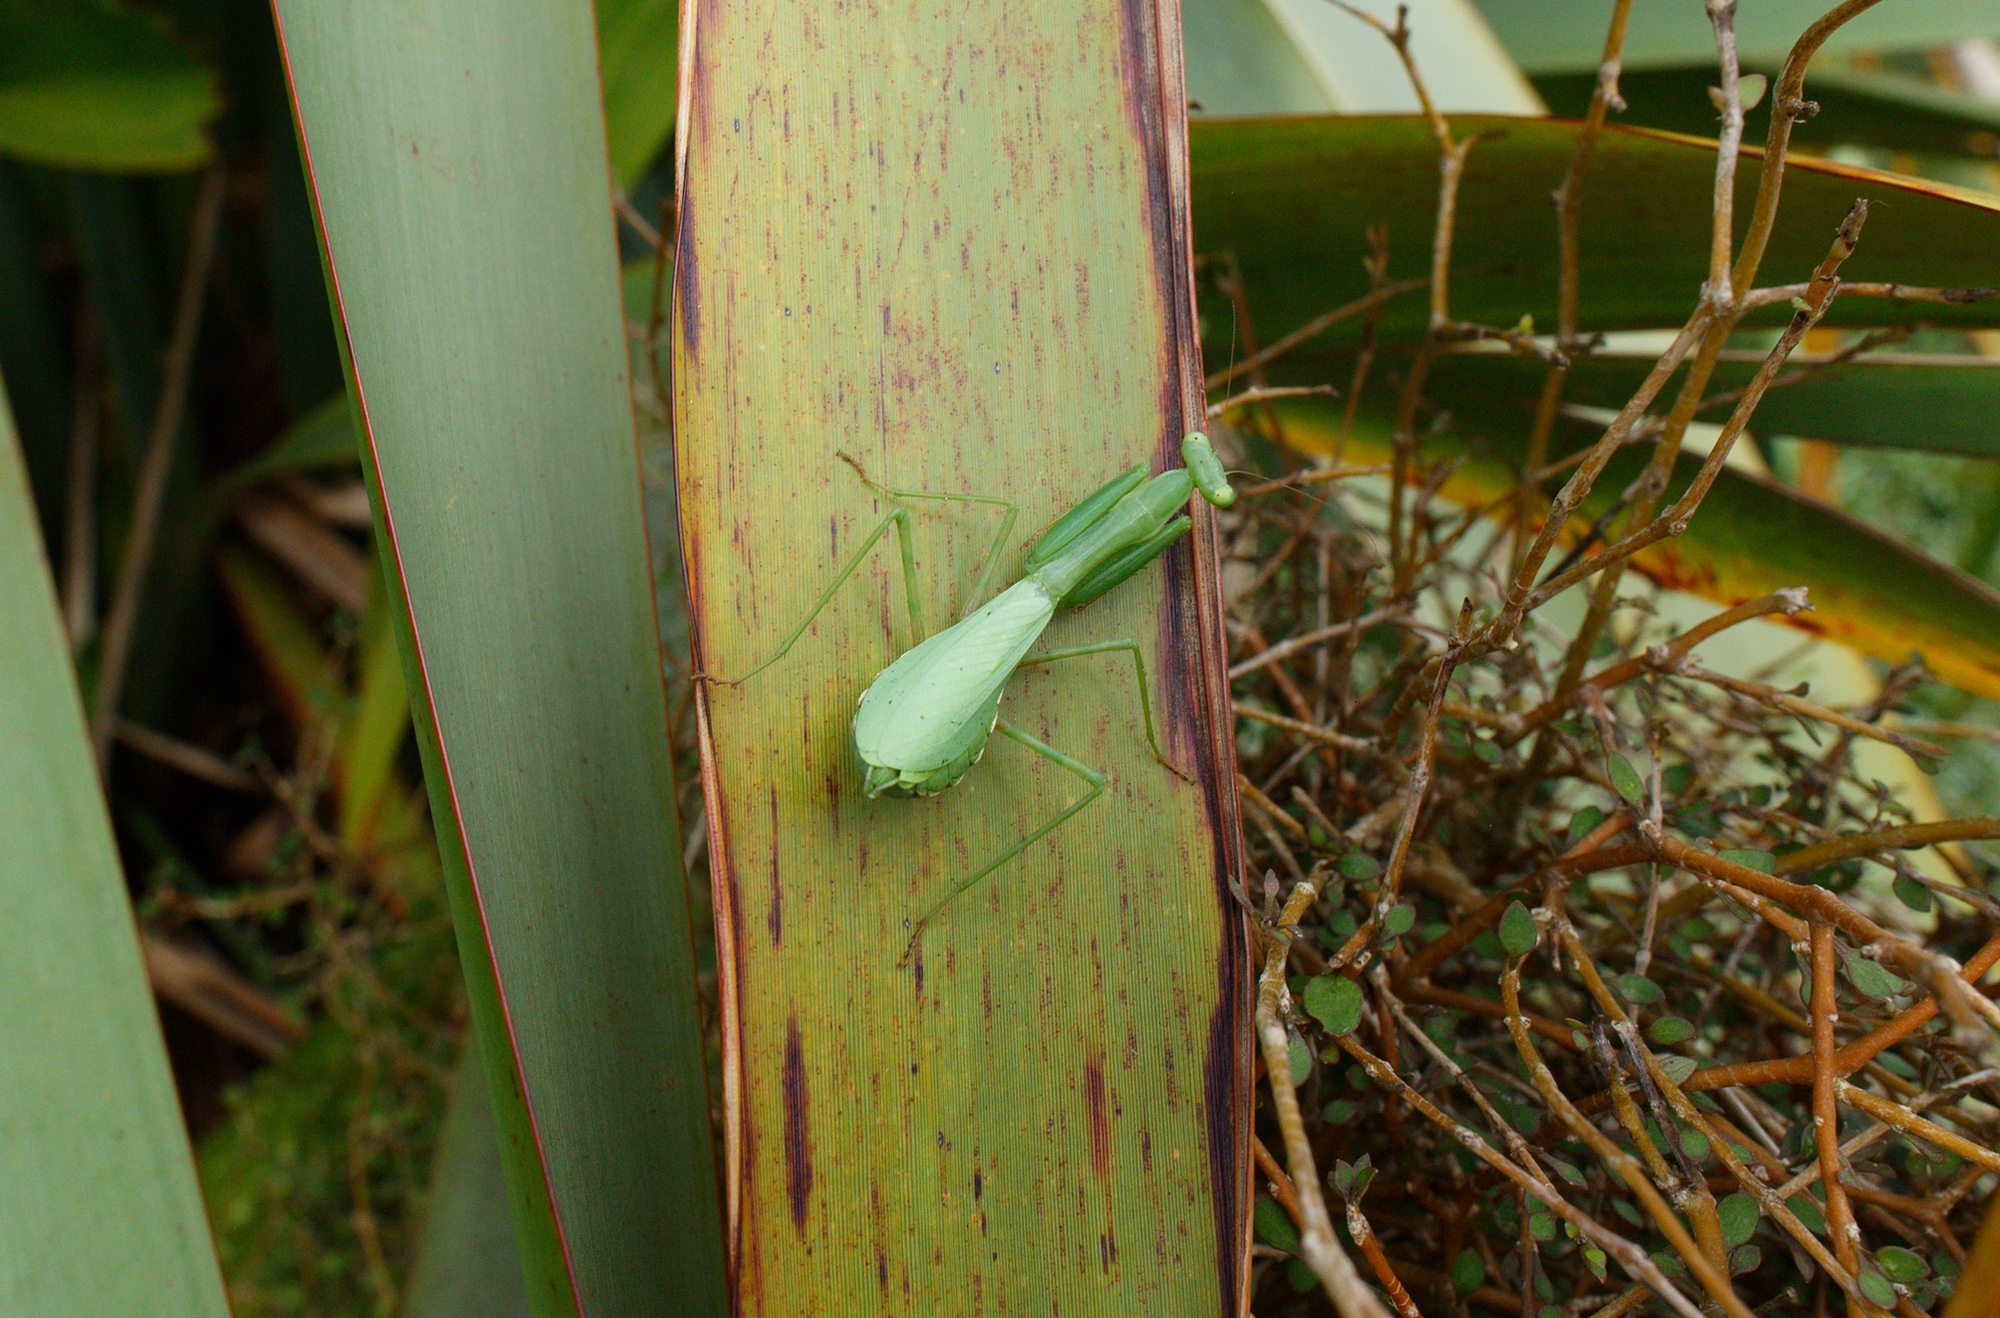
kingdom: Animalia
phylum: Arthropoda
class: Insecta
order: Mantodea
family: Miomantidae
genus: Miomantis
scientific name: Miomantis caffra
